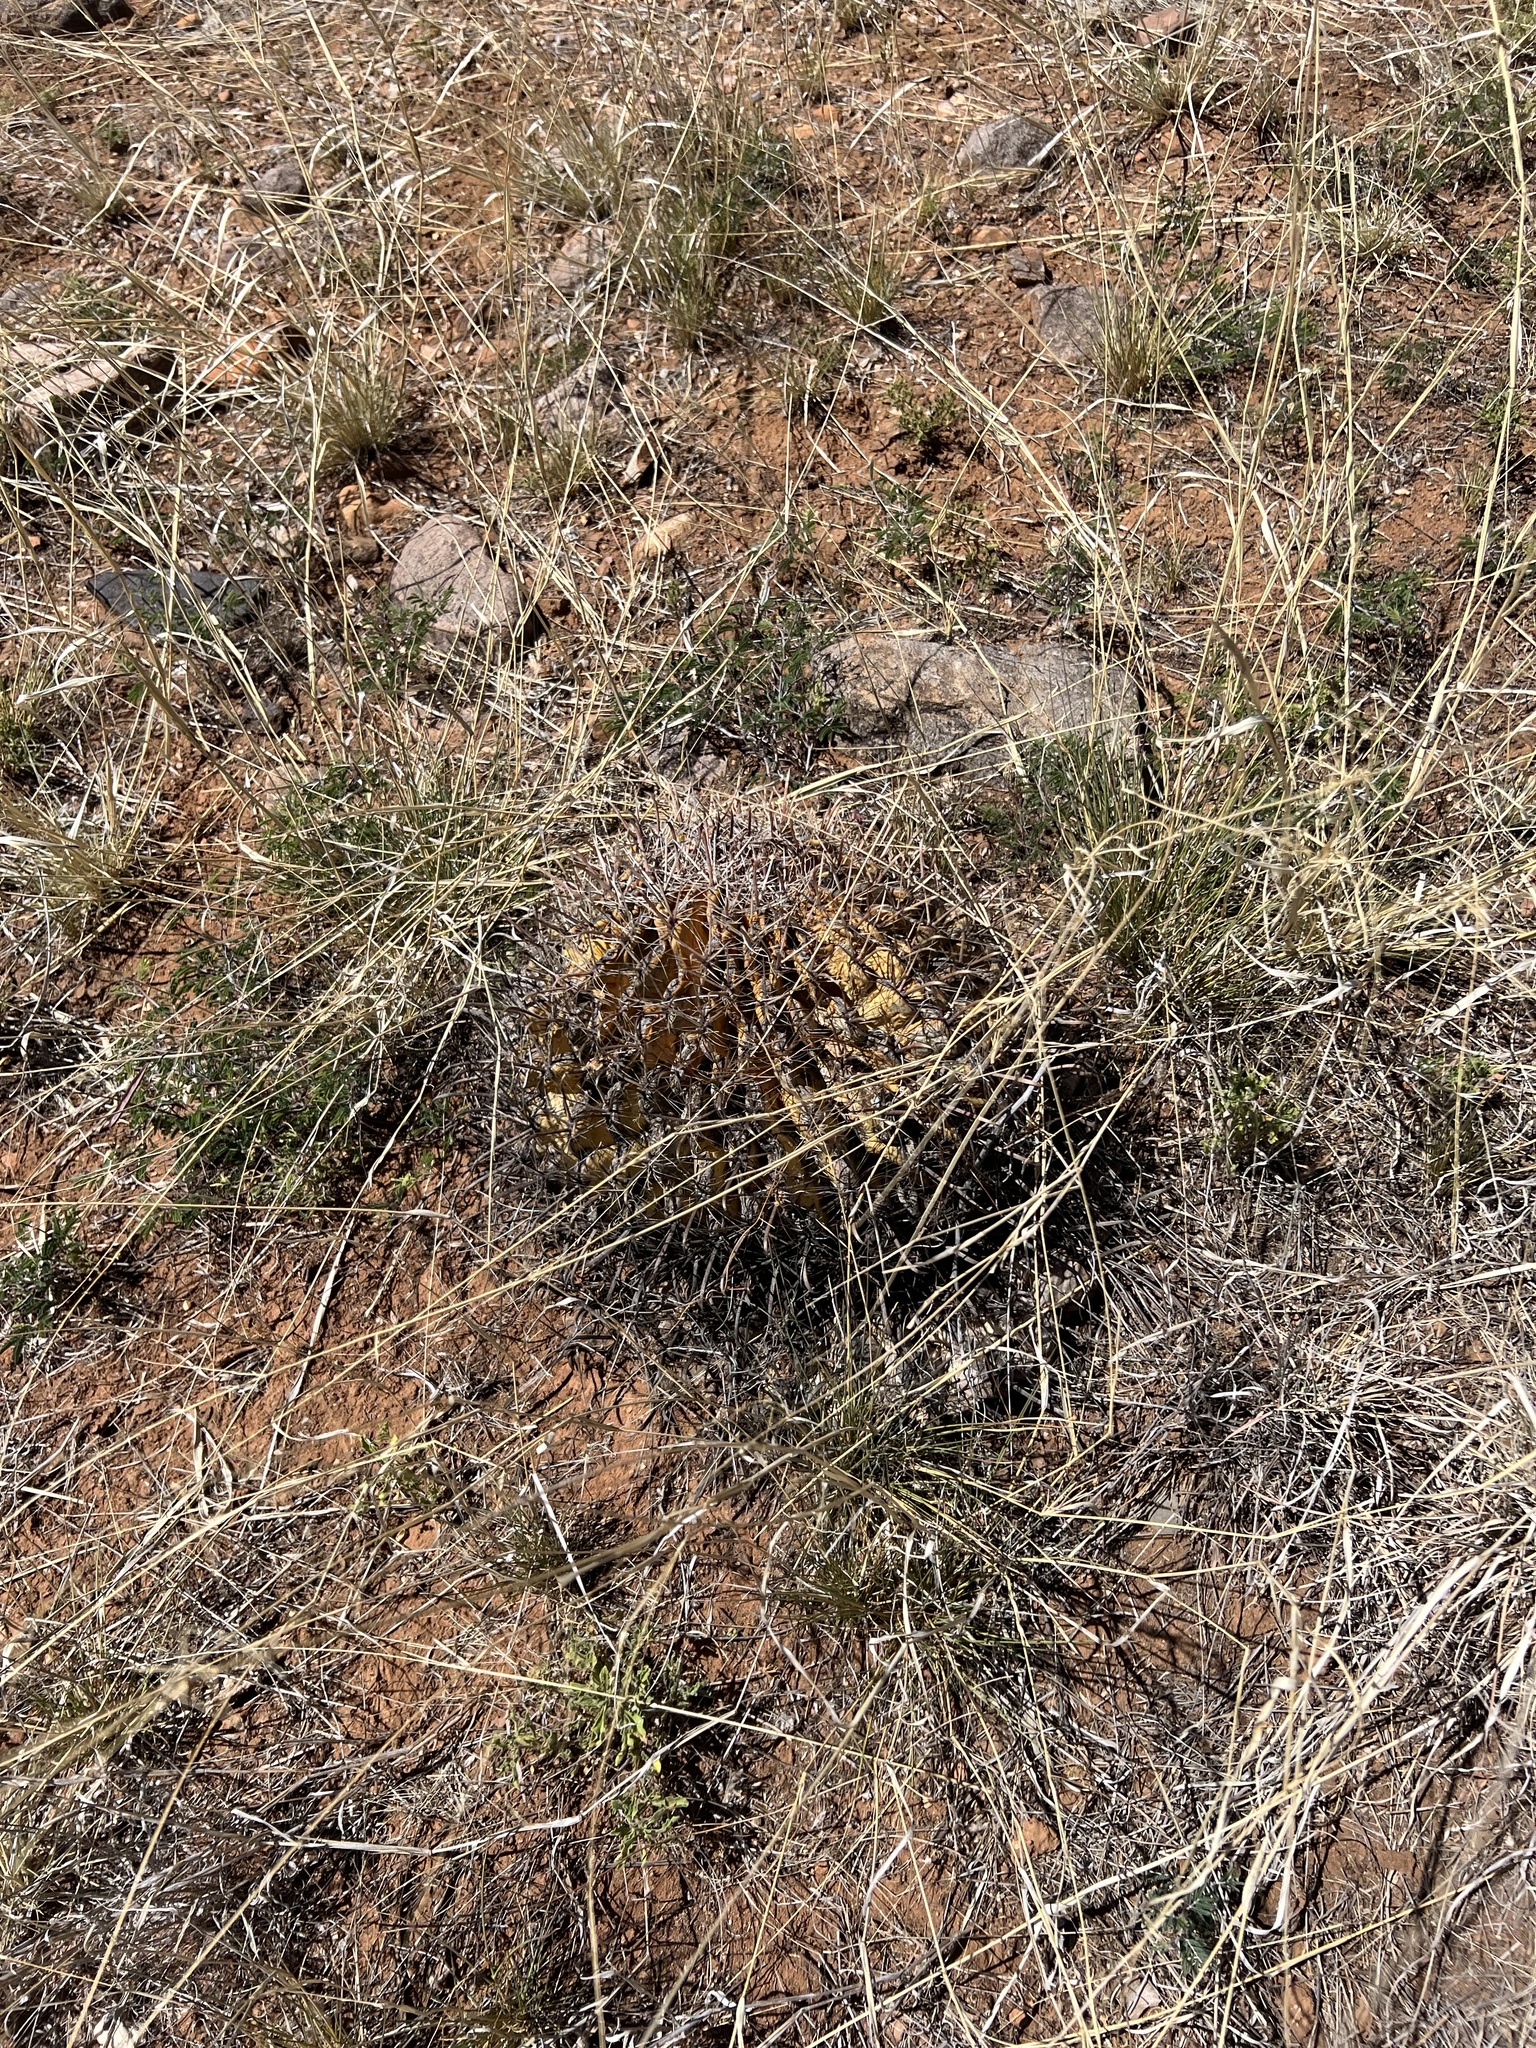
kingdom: Plantae
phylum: Tracheophyta
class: Magnoliopsida
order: Caryophyllales
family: Cactaceae
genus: Ferocactus
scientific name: Ferocactus wislizeni
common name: Candy barrel cactus
